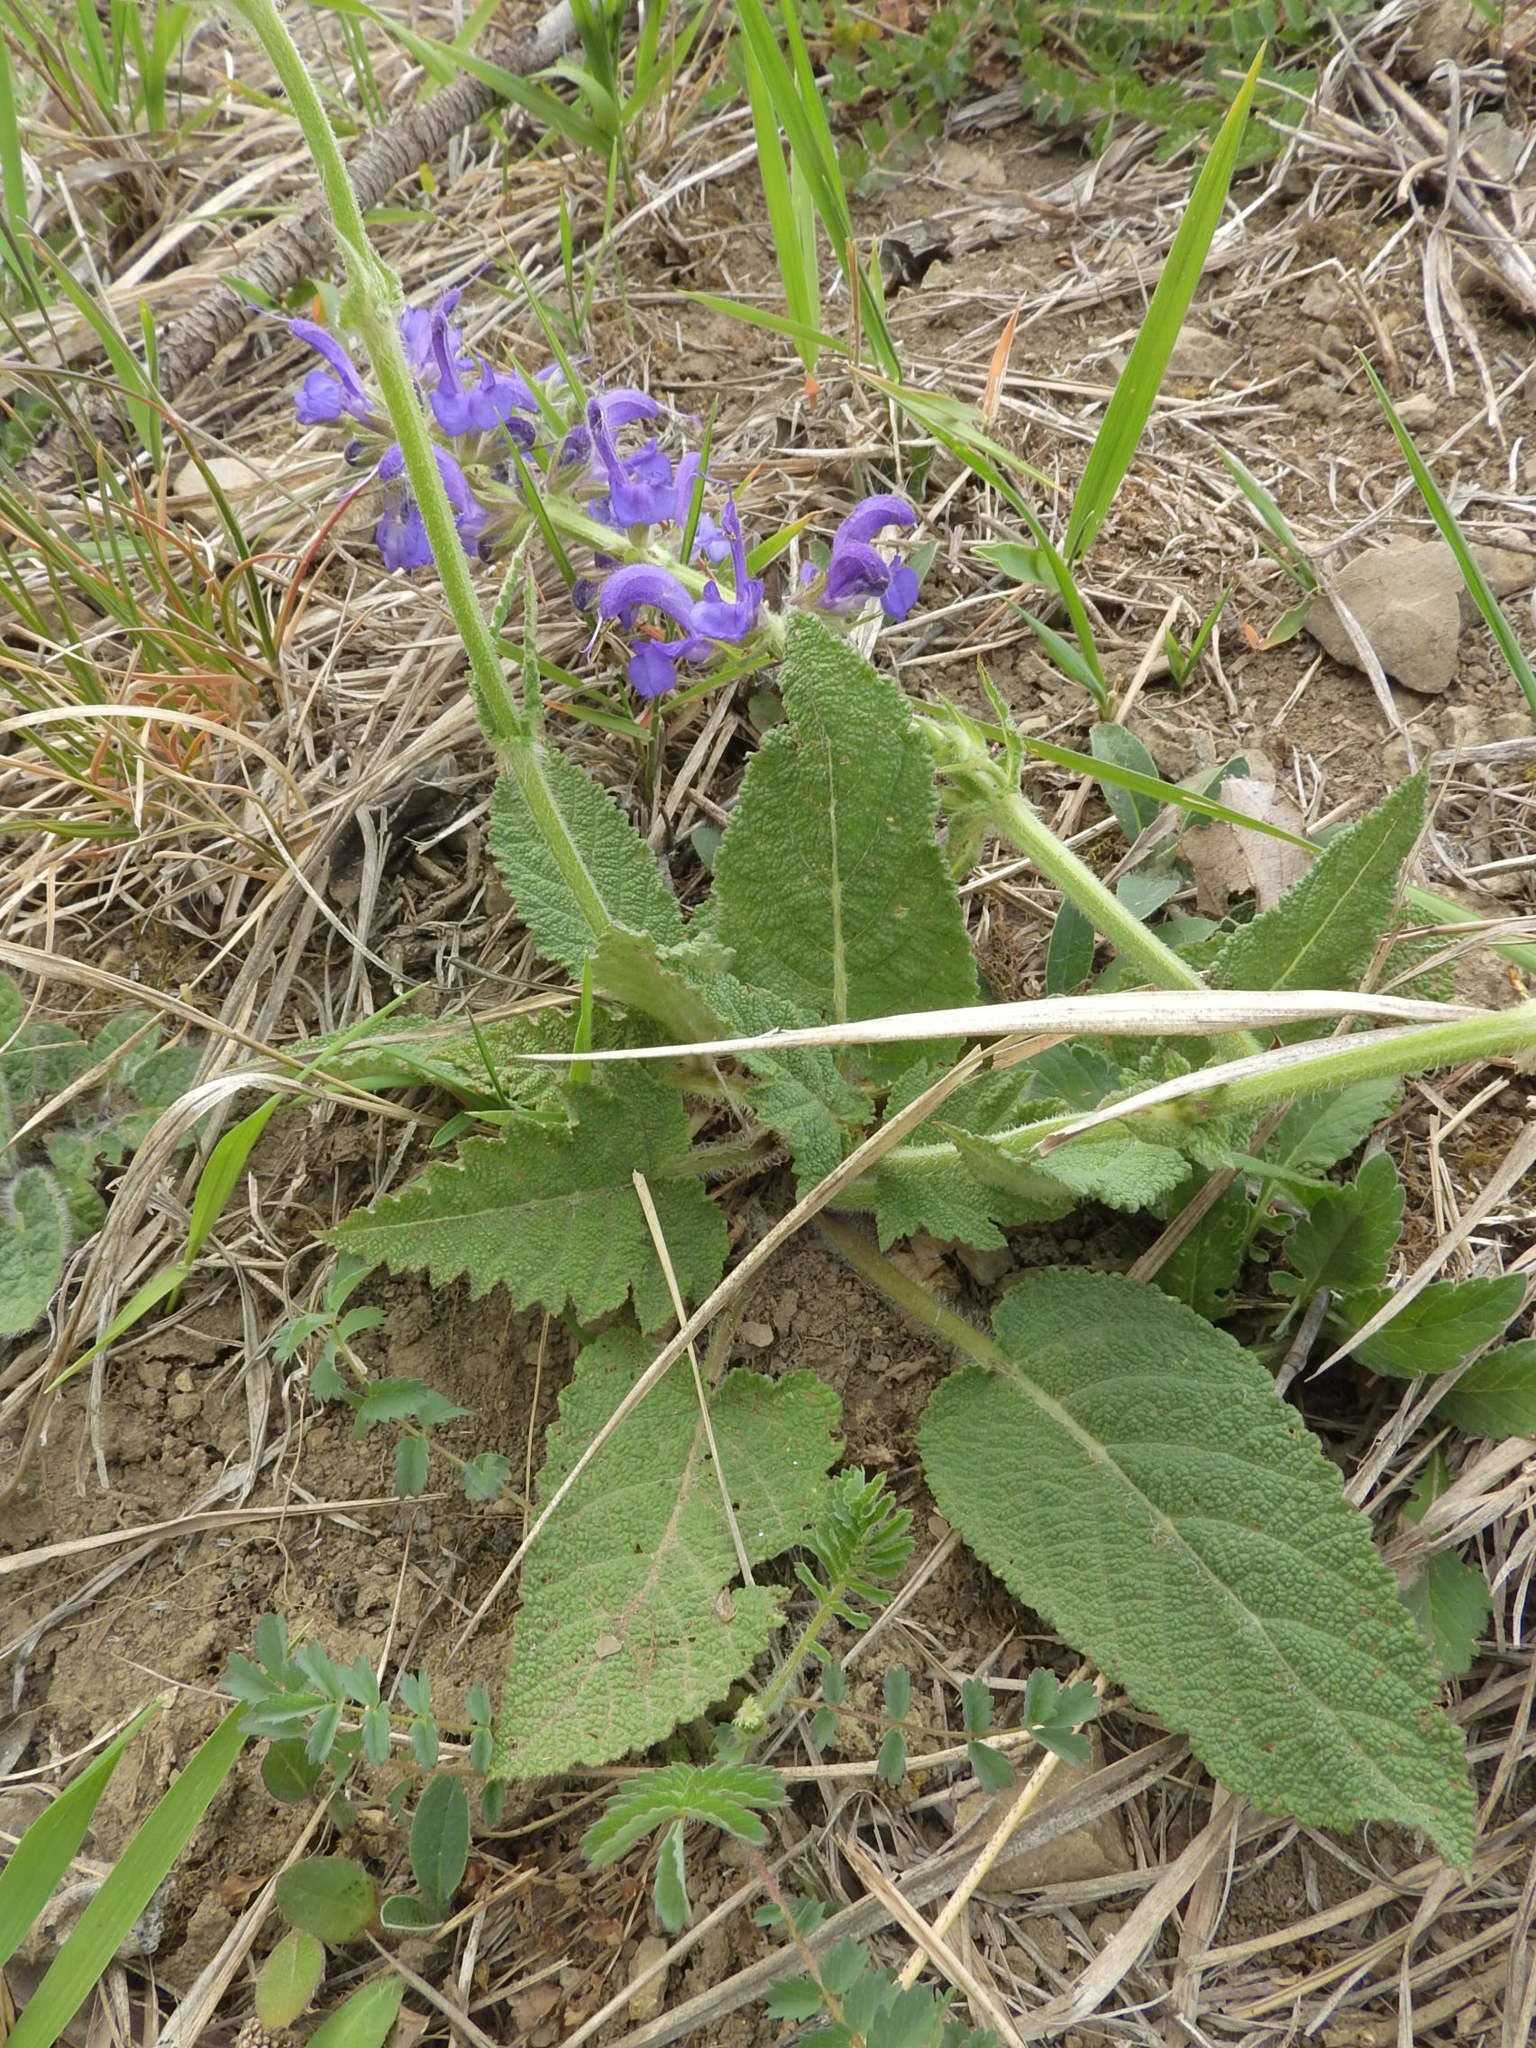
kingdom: Plantae
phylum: Tracheophyta
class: Magnoliopsida
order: Lamiales
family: Lamiaceae
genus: Salvia
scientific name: Salvia pratensis
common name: Meadow sage
